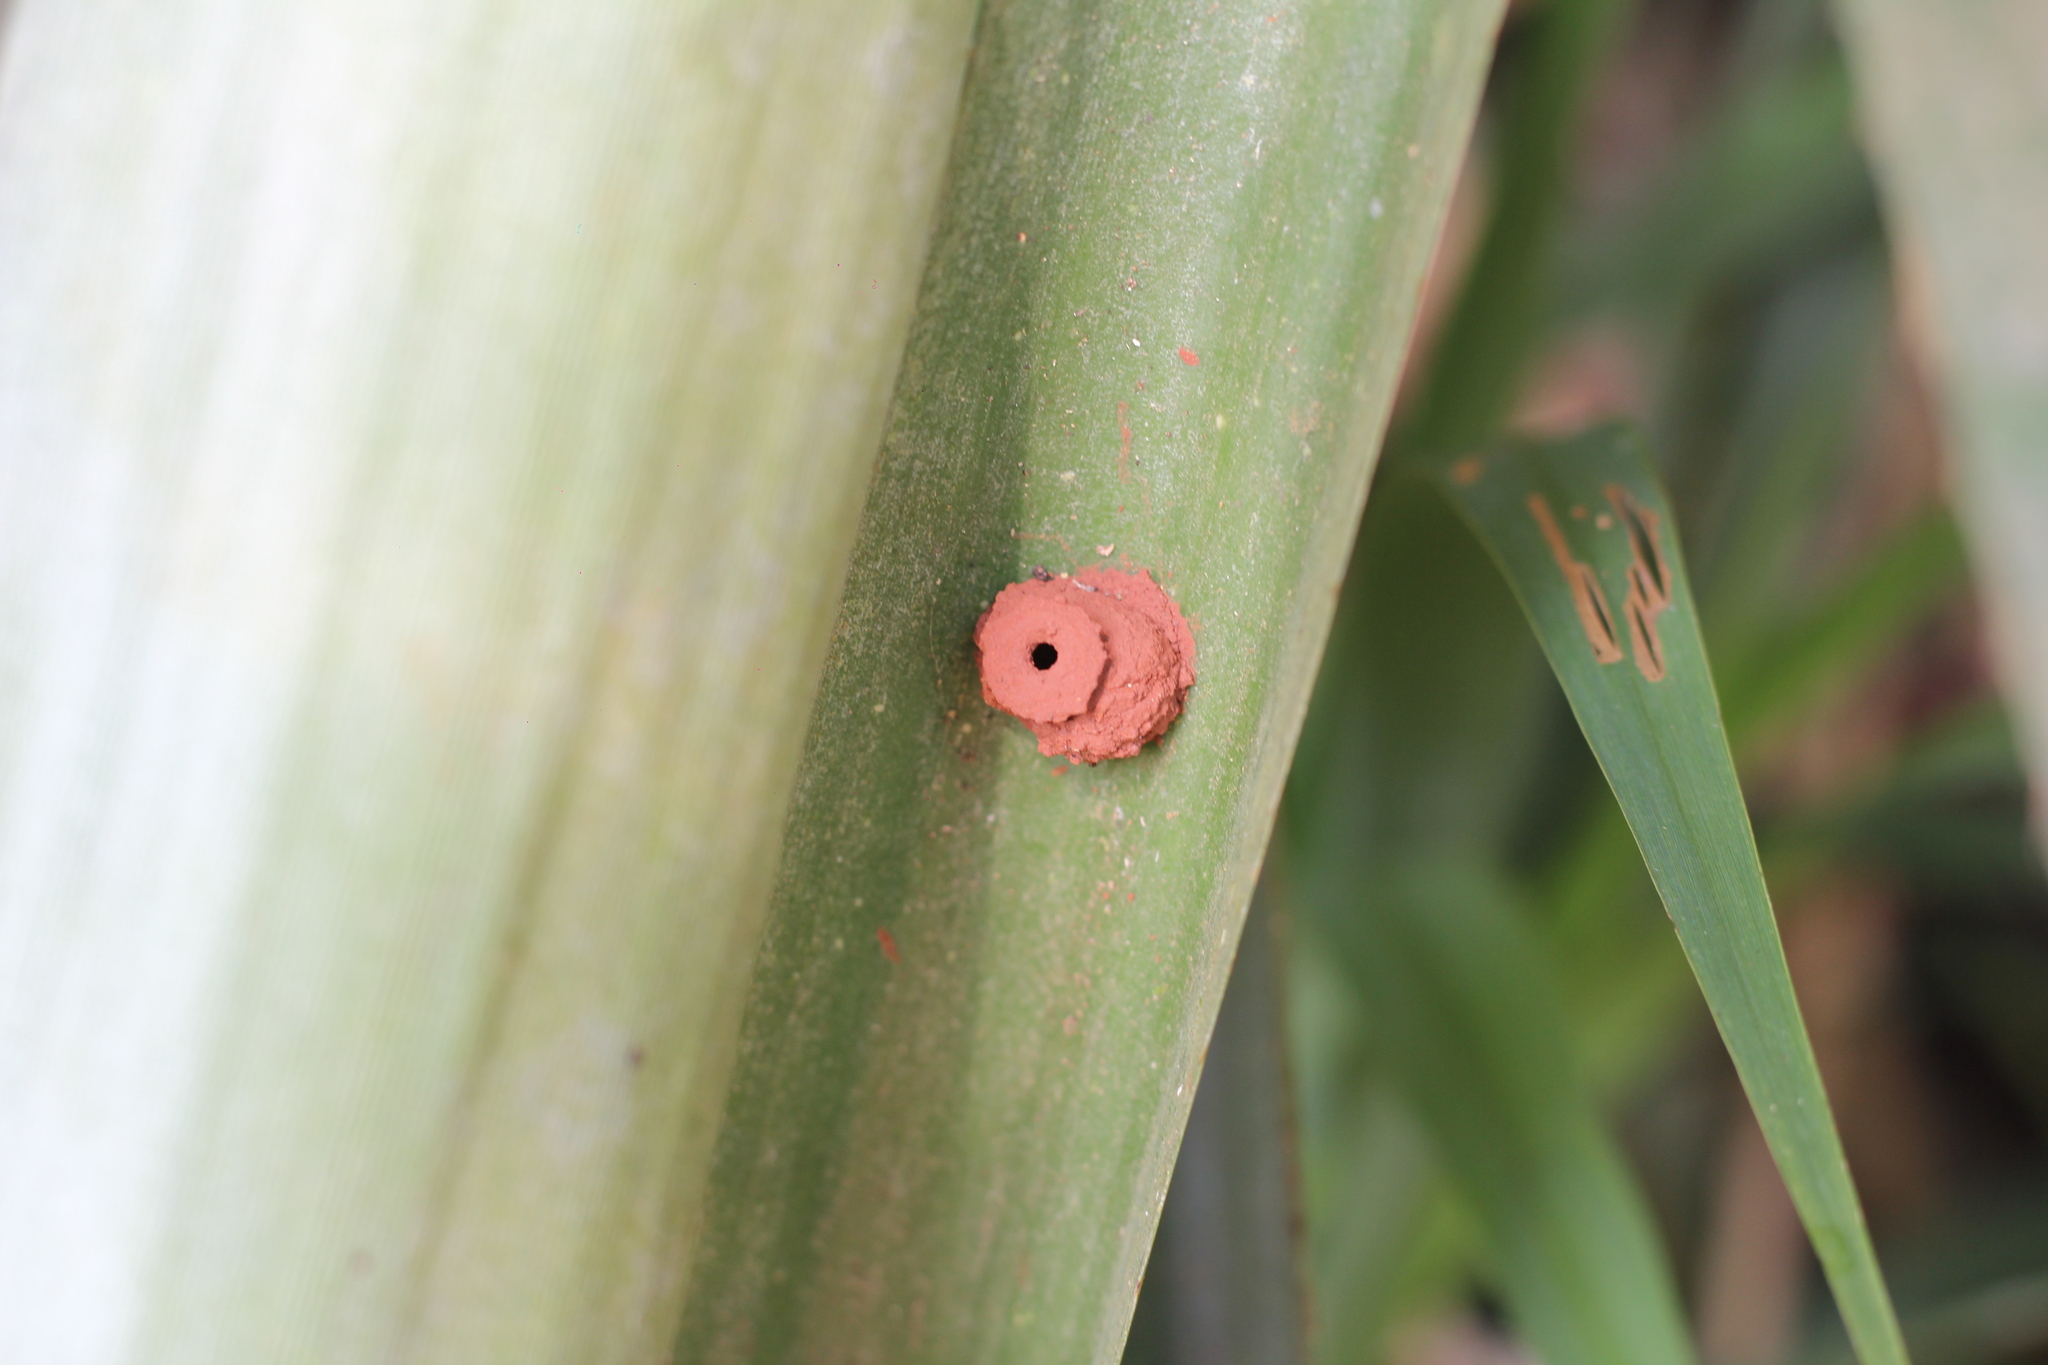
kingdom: Animalia
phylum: Arthropoda
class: Insecta
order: Hymenoptera
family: Eumenidae
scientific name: Eumenidae
